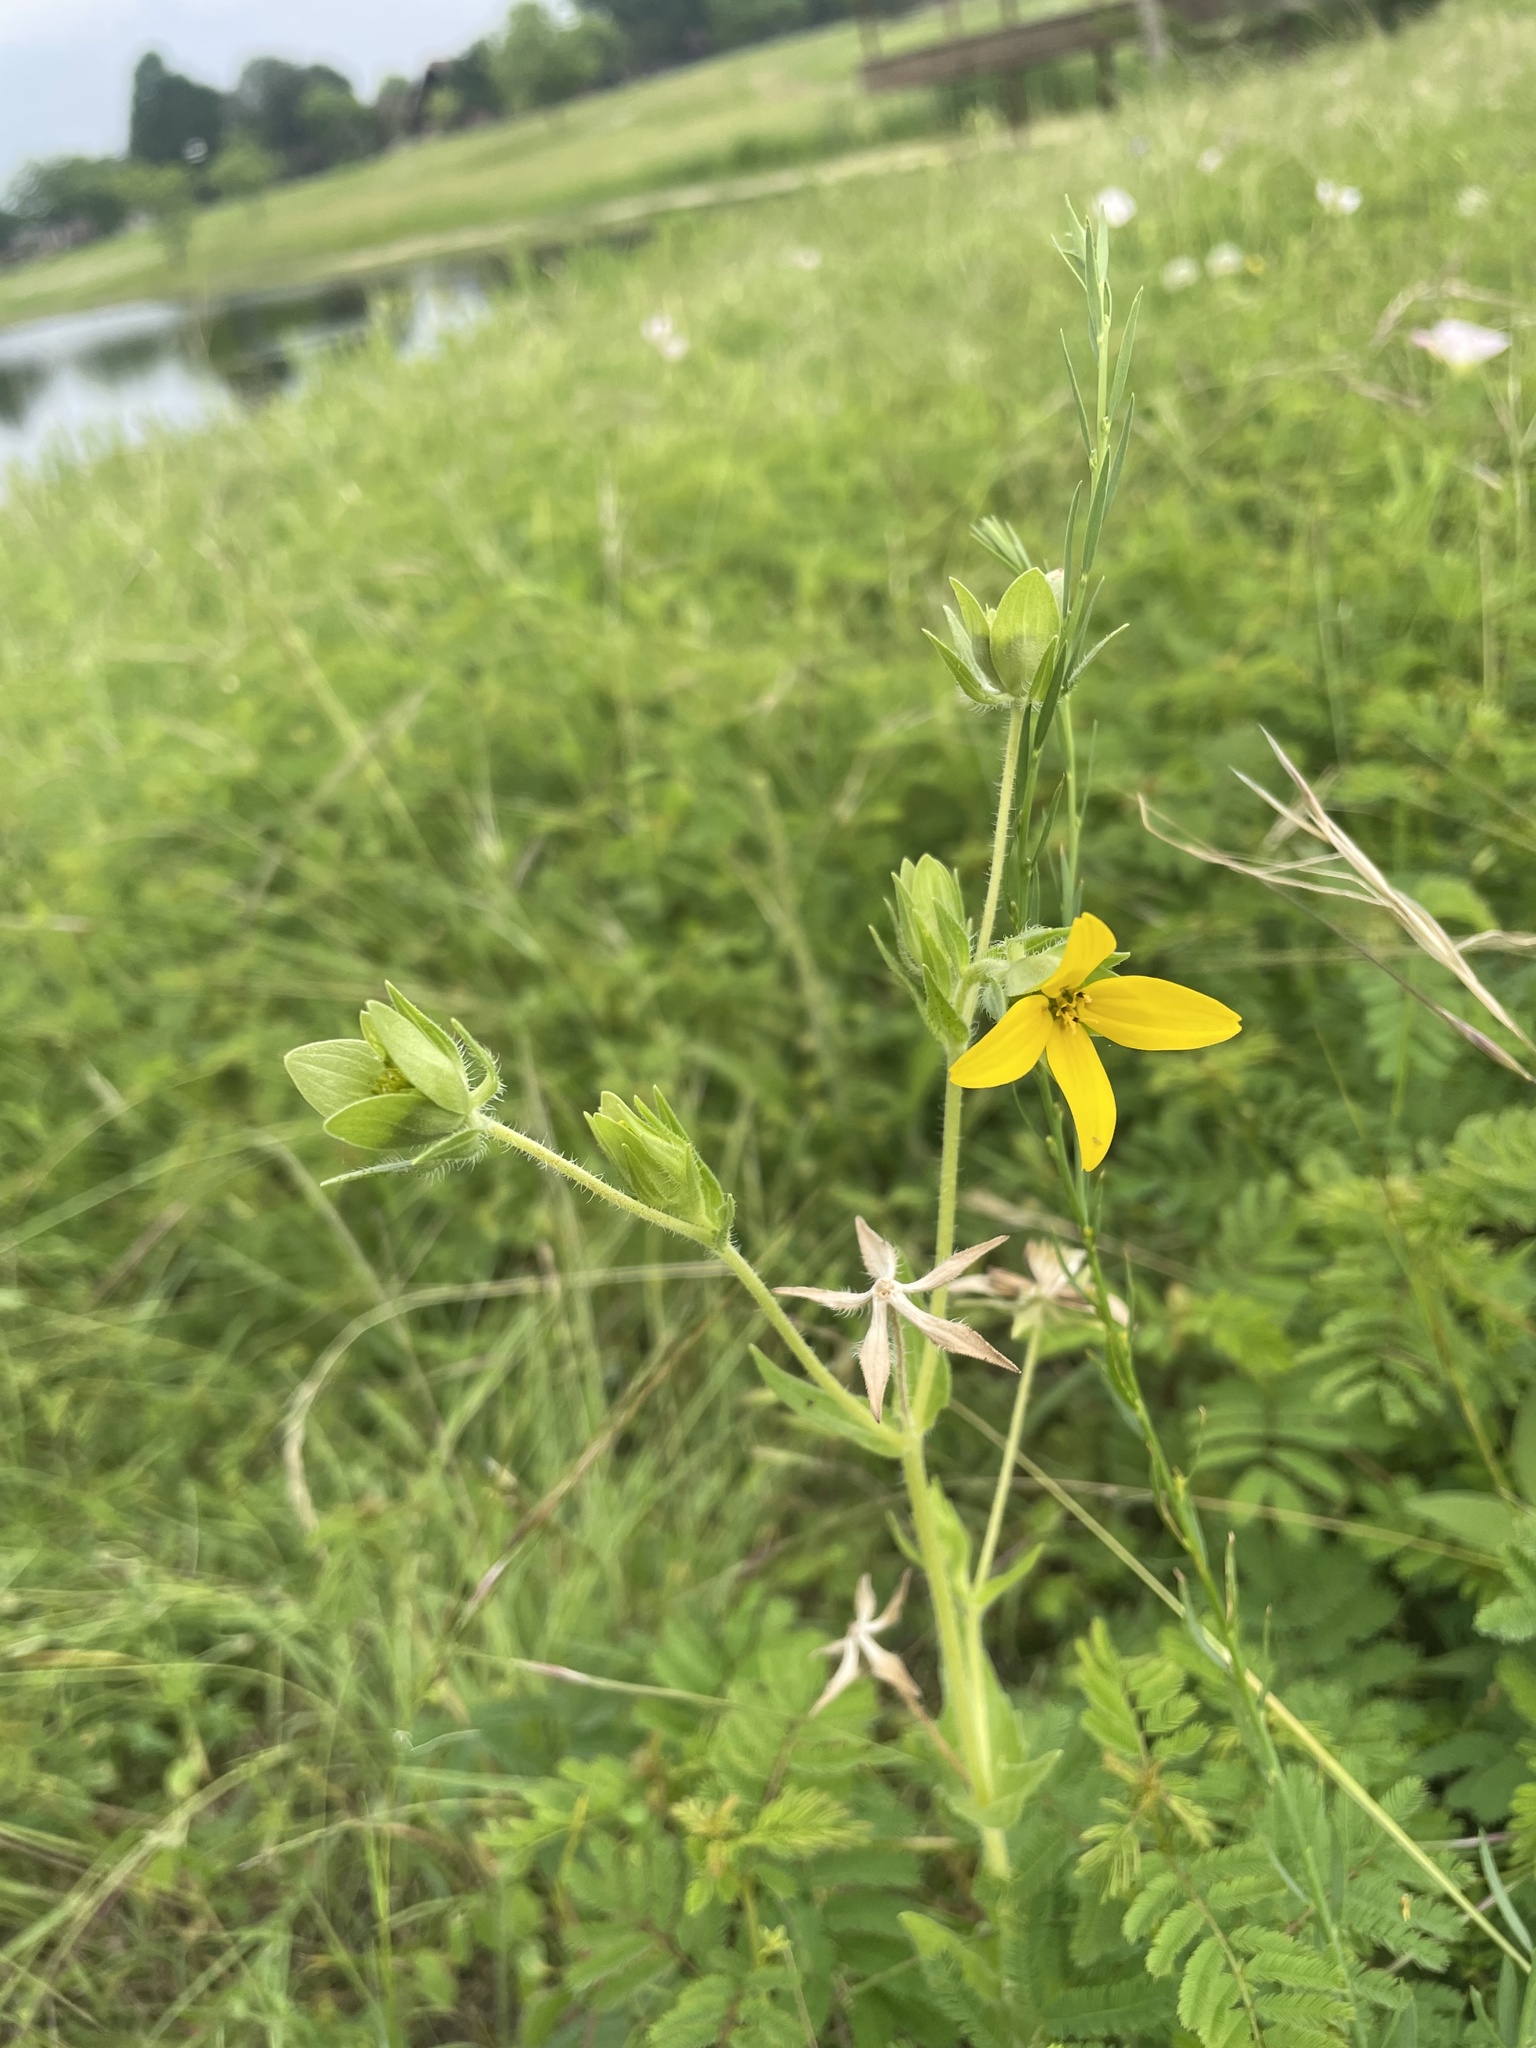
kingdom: Plantae
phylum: Tracheophyta
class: Magnoliopsida
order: Asterales
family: Asteraceae
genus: Lindheimera
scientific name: Lindheimera texana
